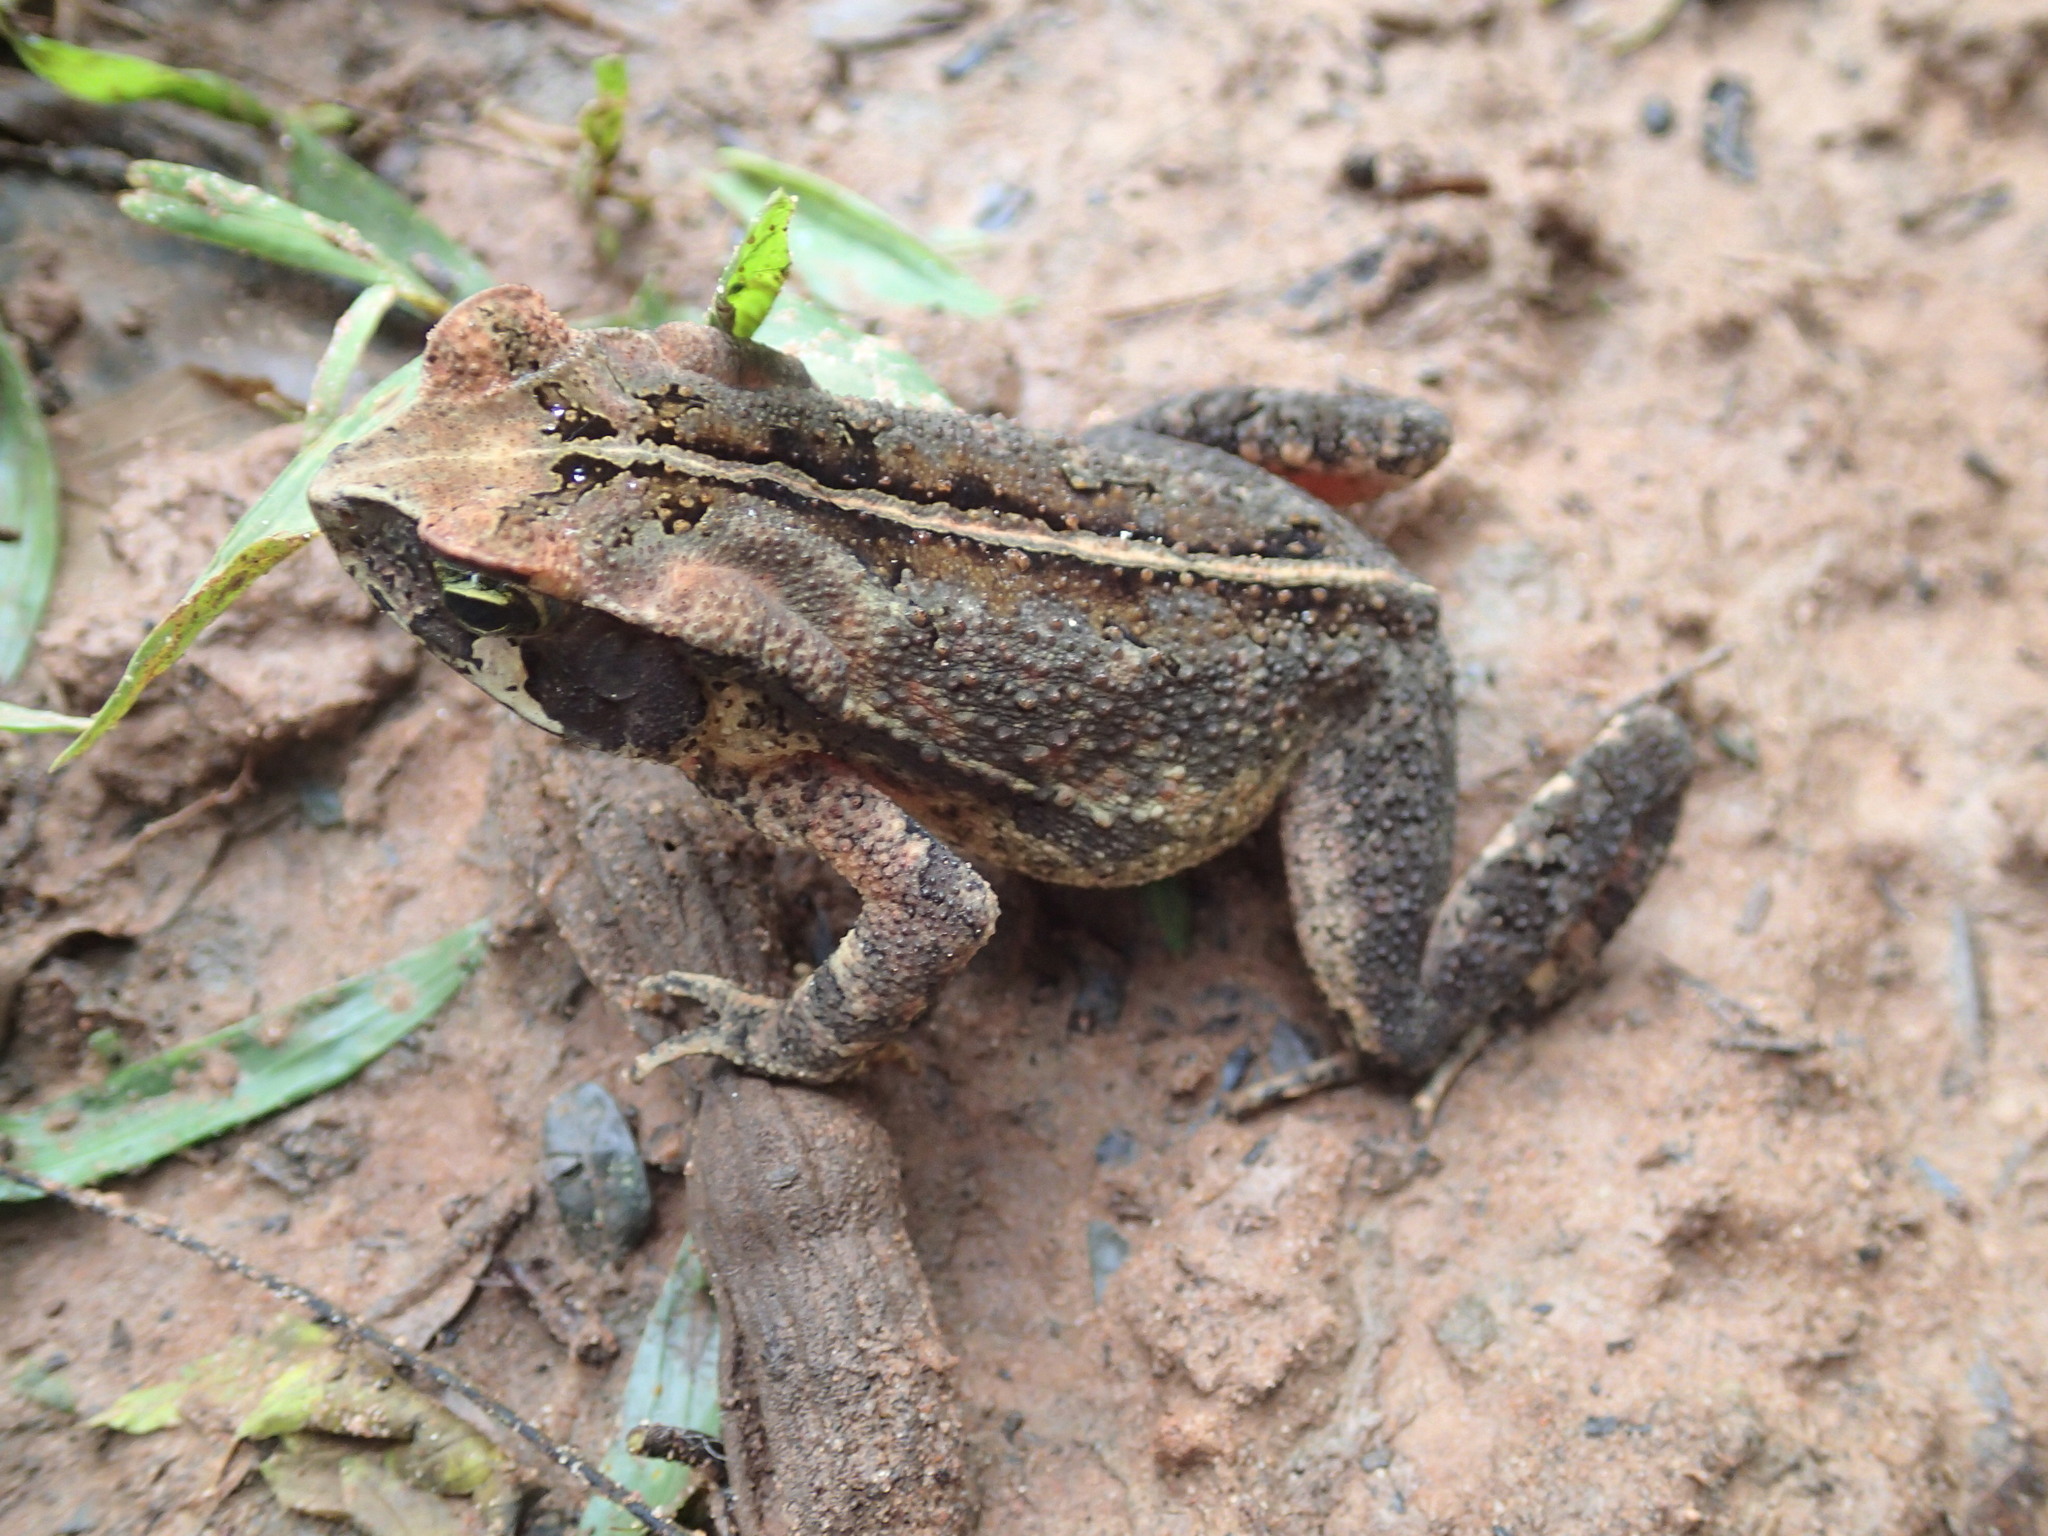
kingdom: Animalia
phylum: Chordata
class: Amphibia
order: Anura
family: Bufonidae
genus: Rhinella
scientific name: Rhinella ornata
